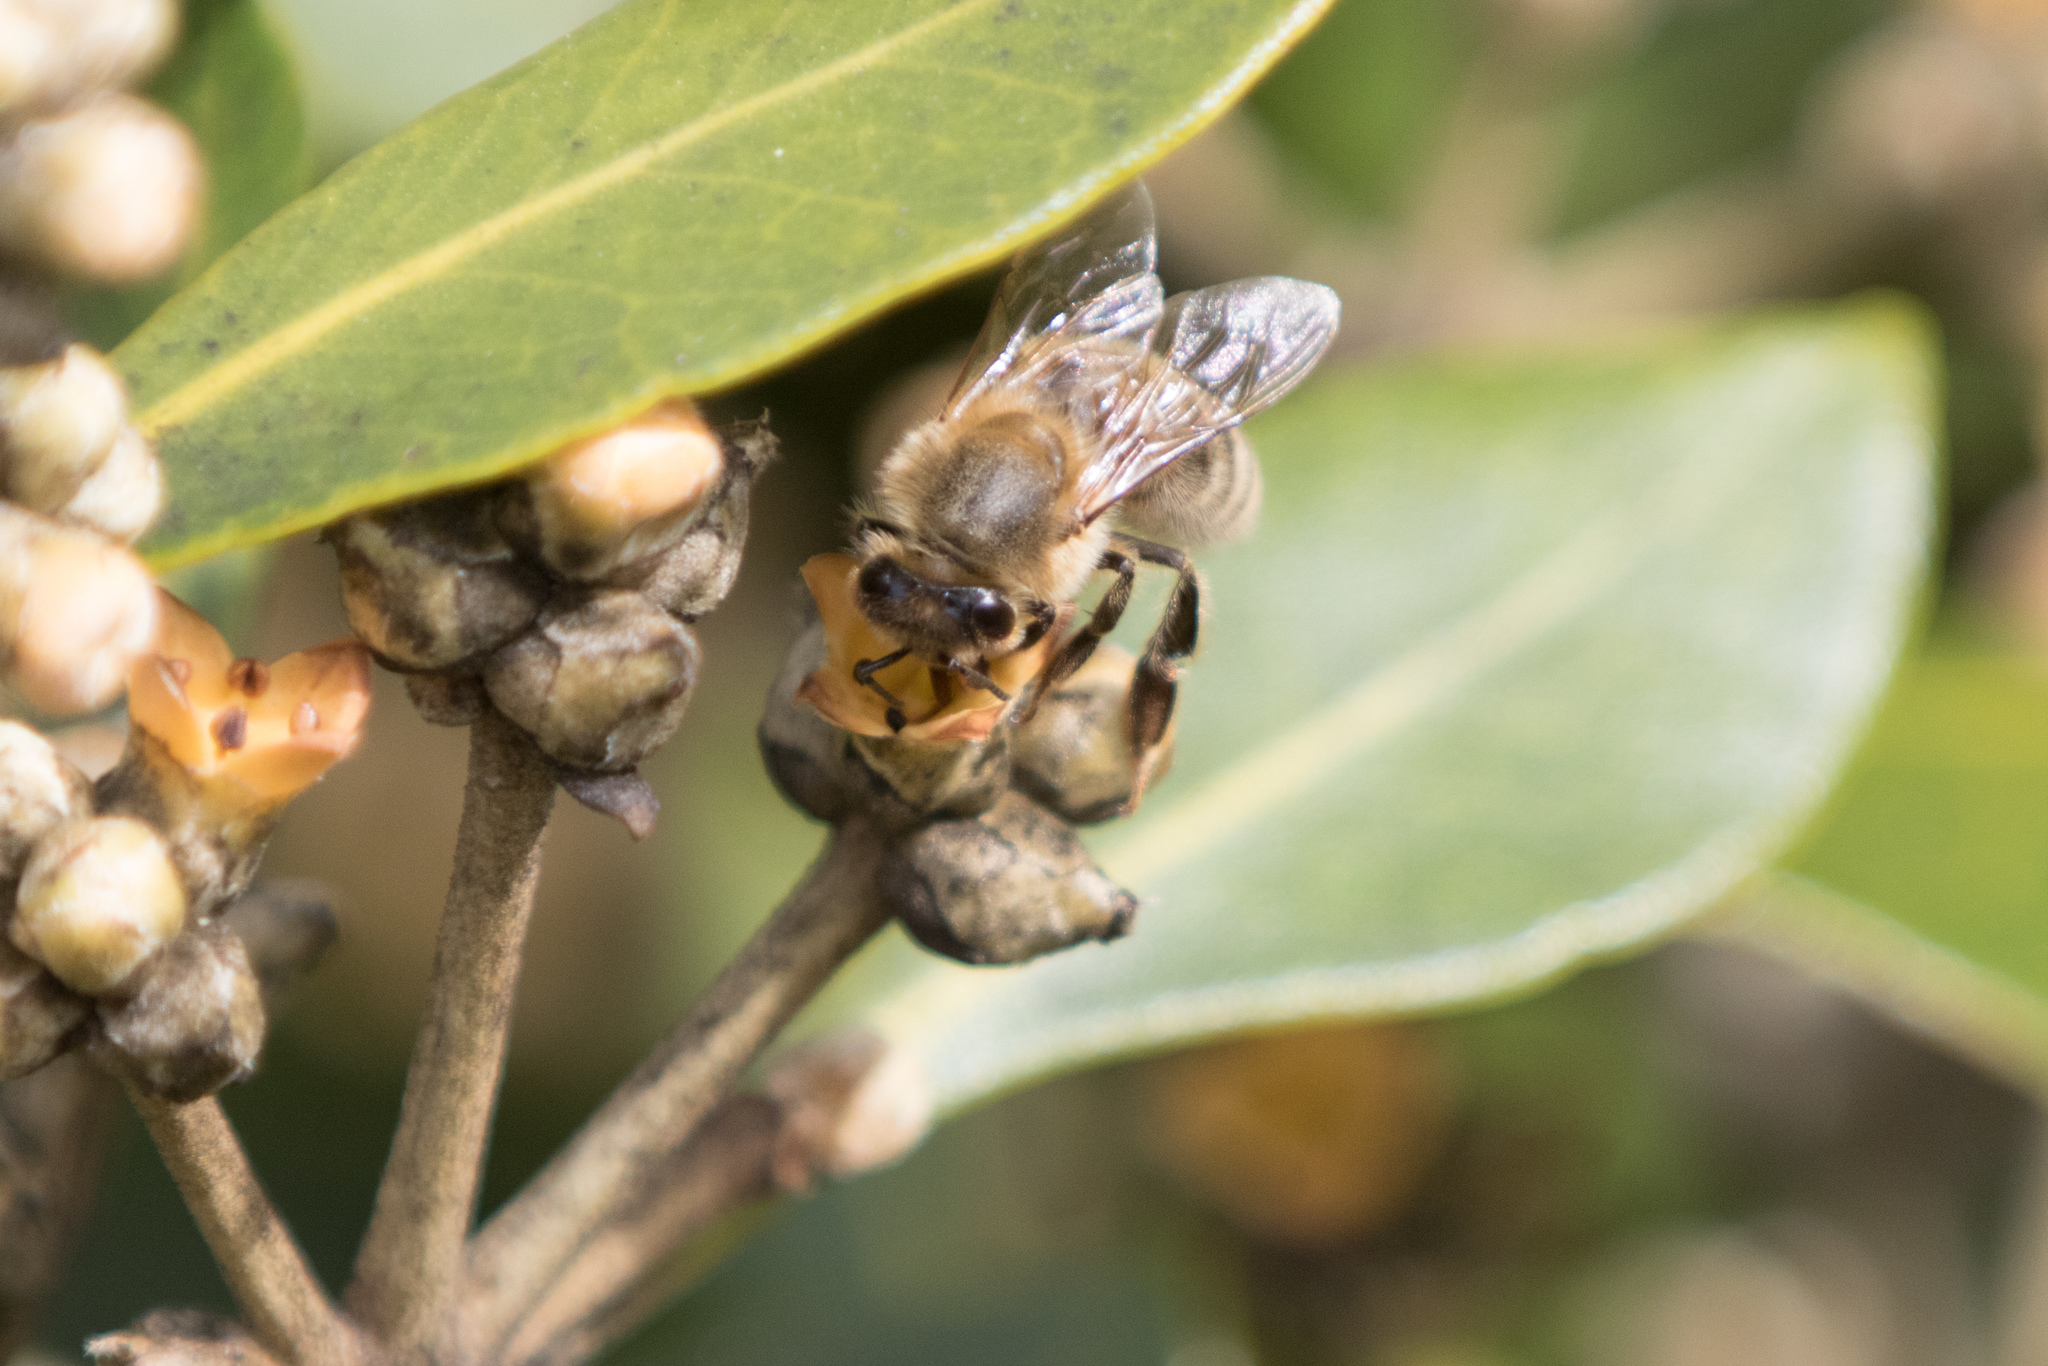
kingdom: Animalia
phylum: Arthropoda
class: Insecta
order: Hymenoptera
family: Apidae
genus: Apis
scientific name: Apis mellifera
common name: Honey bee
